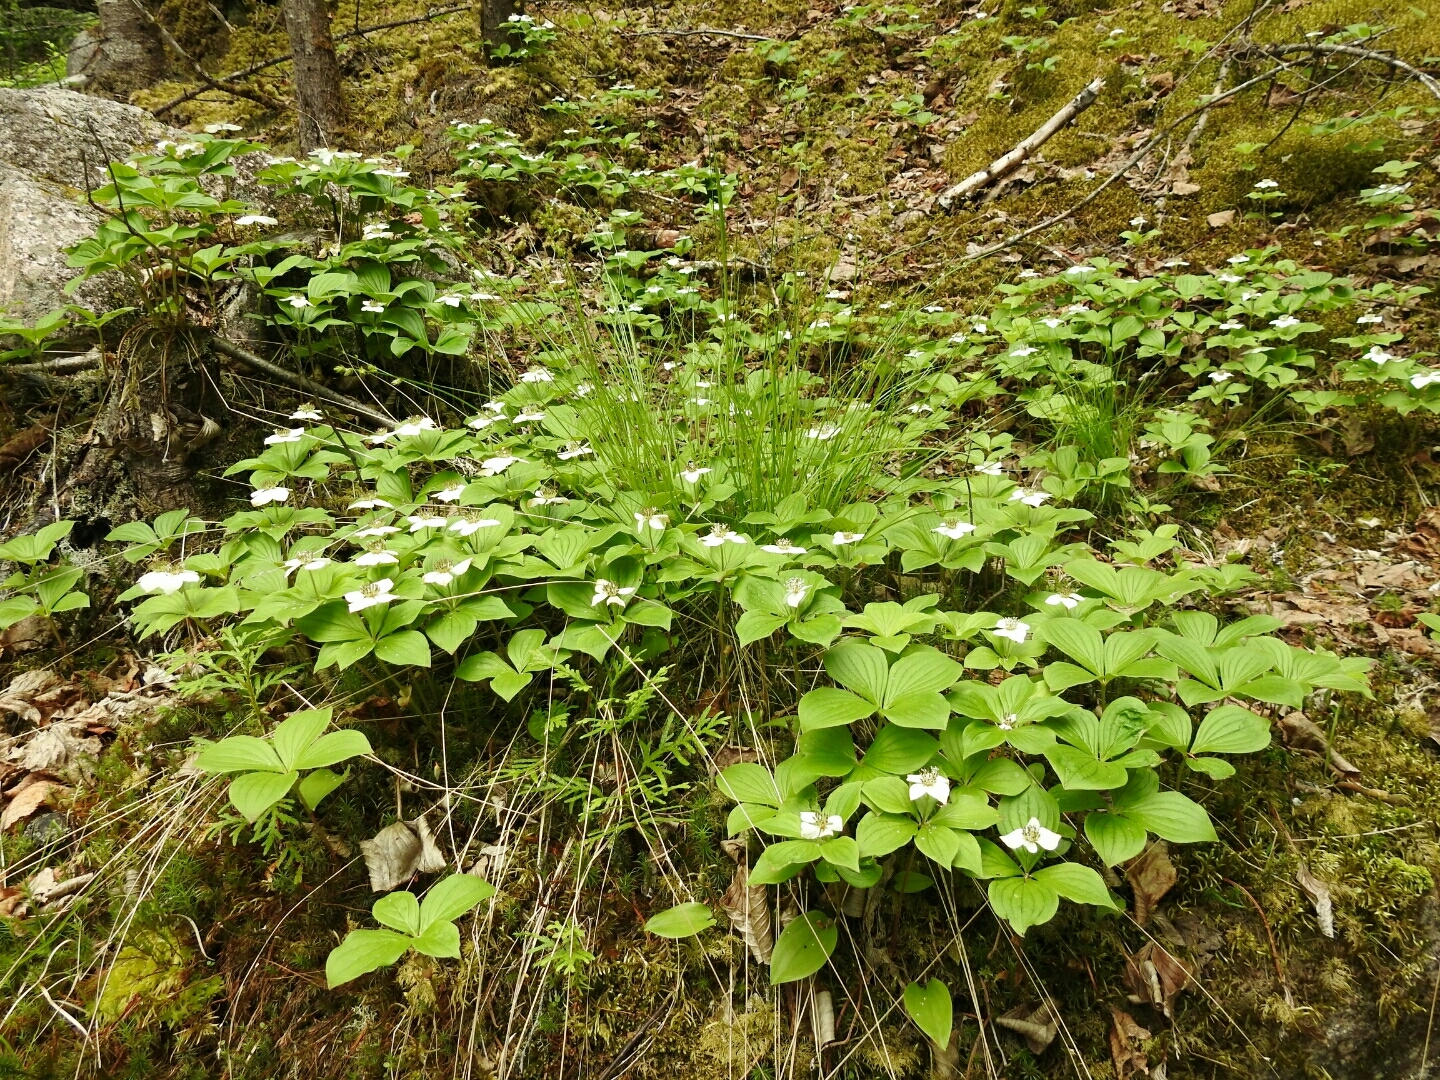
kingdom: Plantae
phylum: Tracheophyta
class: Magnoliopsida
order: Cornales
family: Cornaceae
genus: Cornus
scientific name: Cornus canadensis
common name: Creeping dogwood
